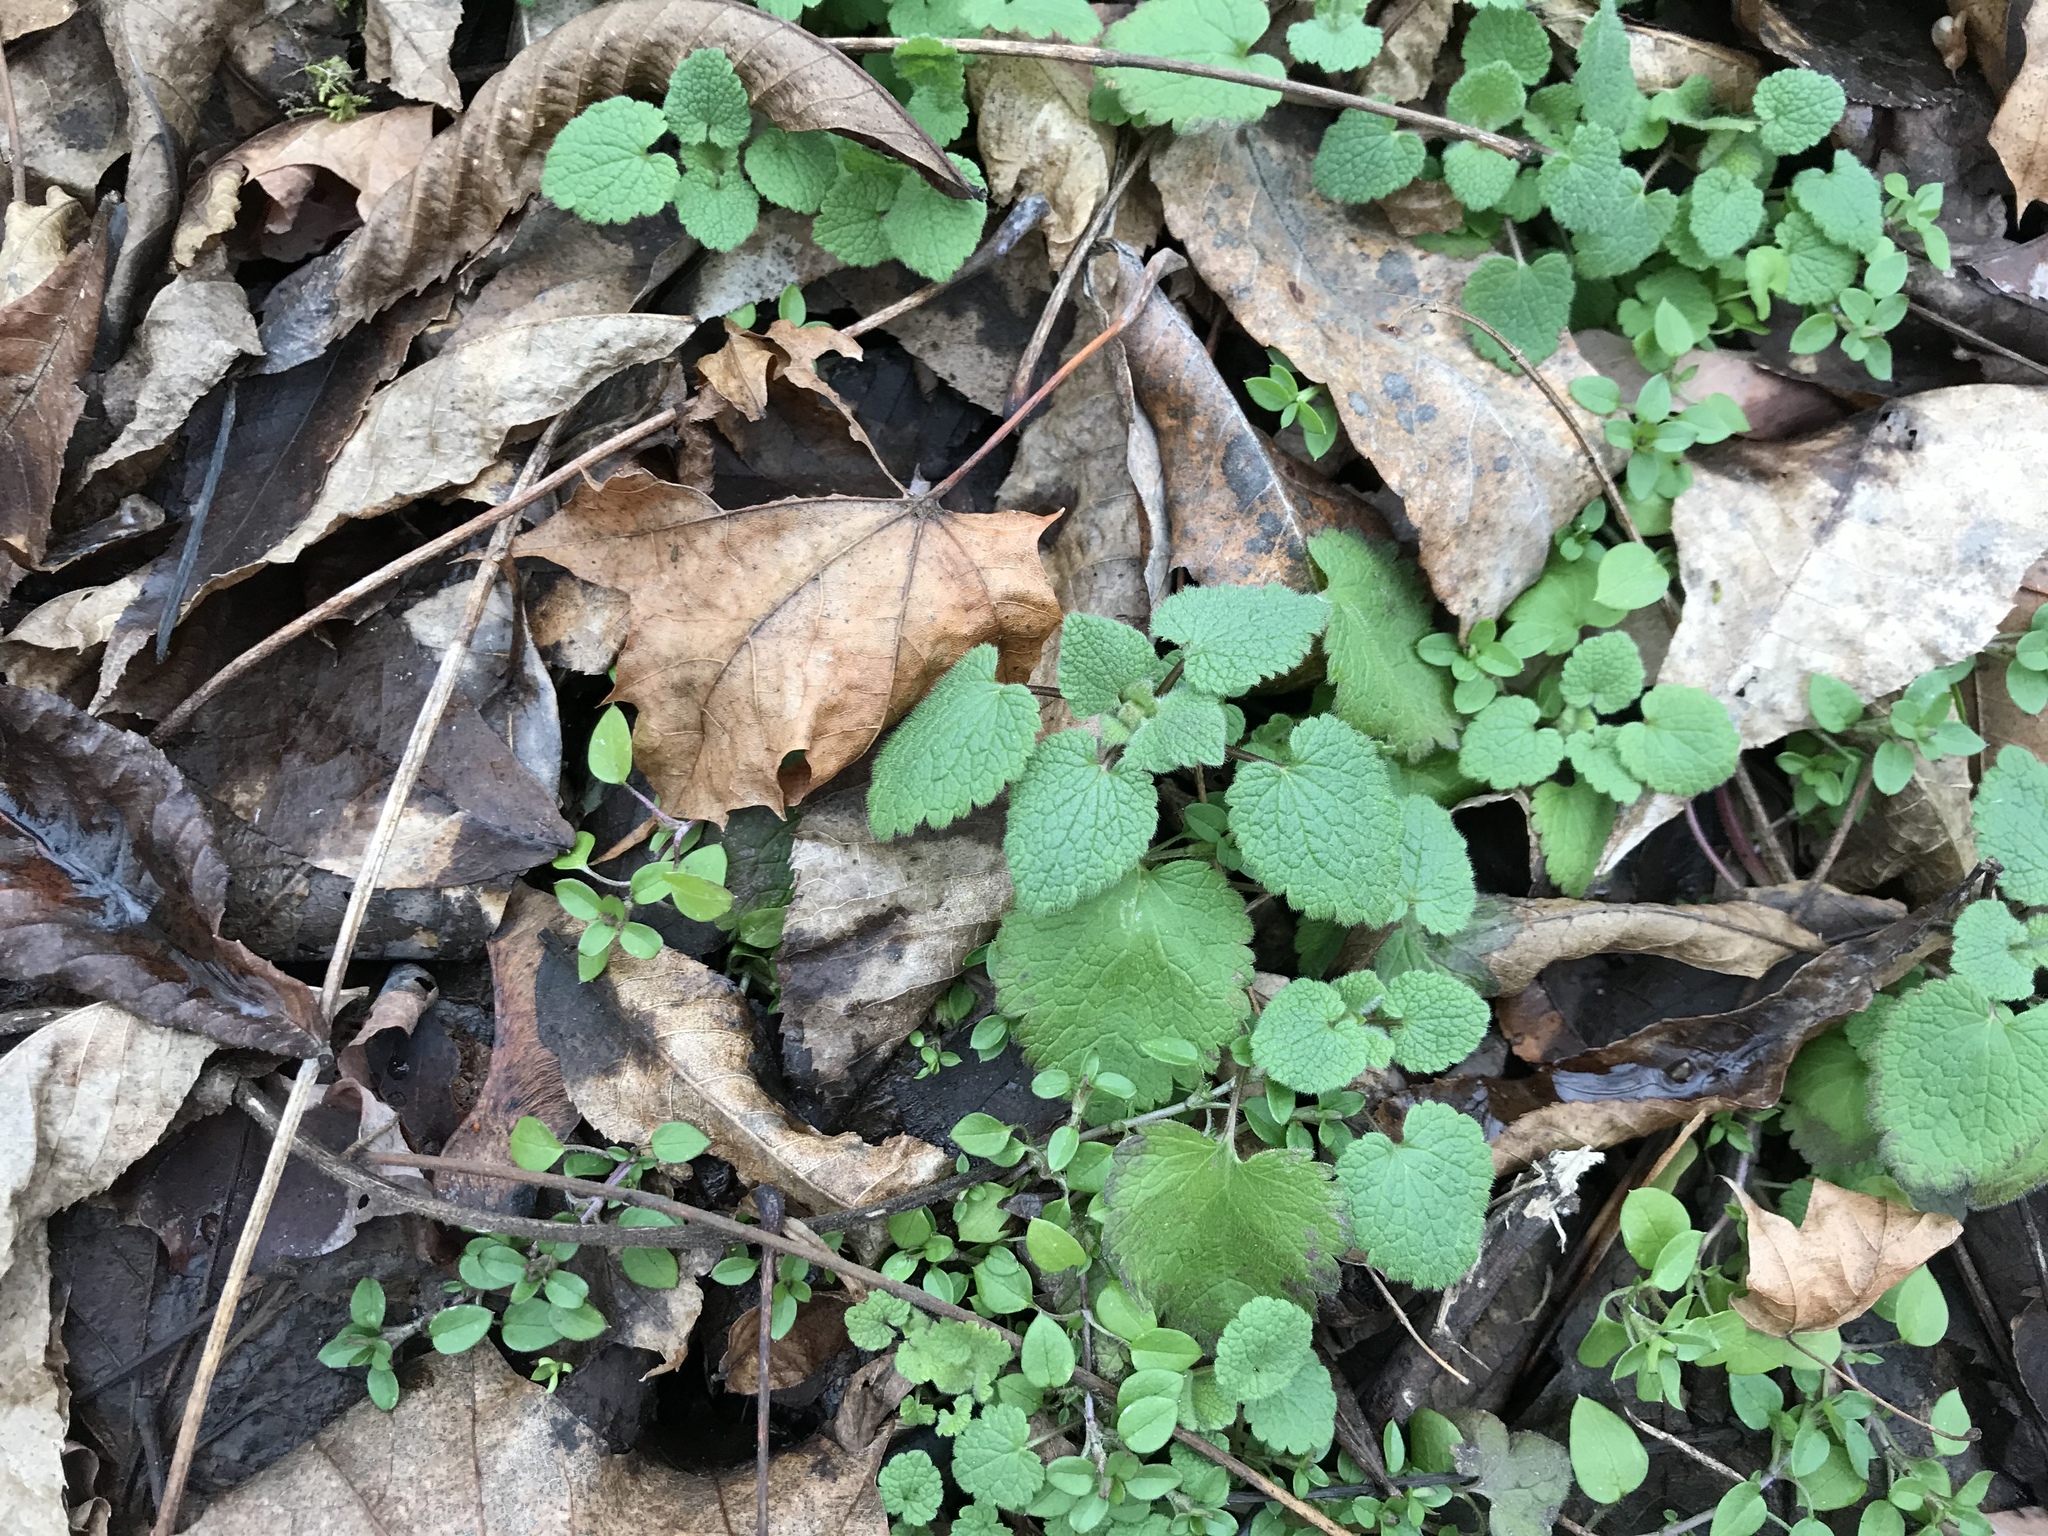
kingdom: Plantae
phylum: Tracheophyta
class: Magnoliopsida
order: Lamiales
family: Lamiaceae
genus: Lamium
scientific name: Lamium purpureum
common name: Red dead-nettle
